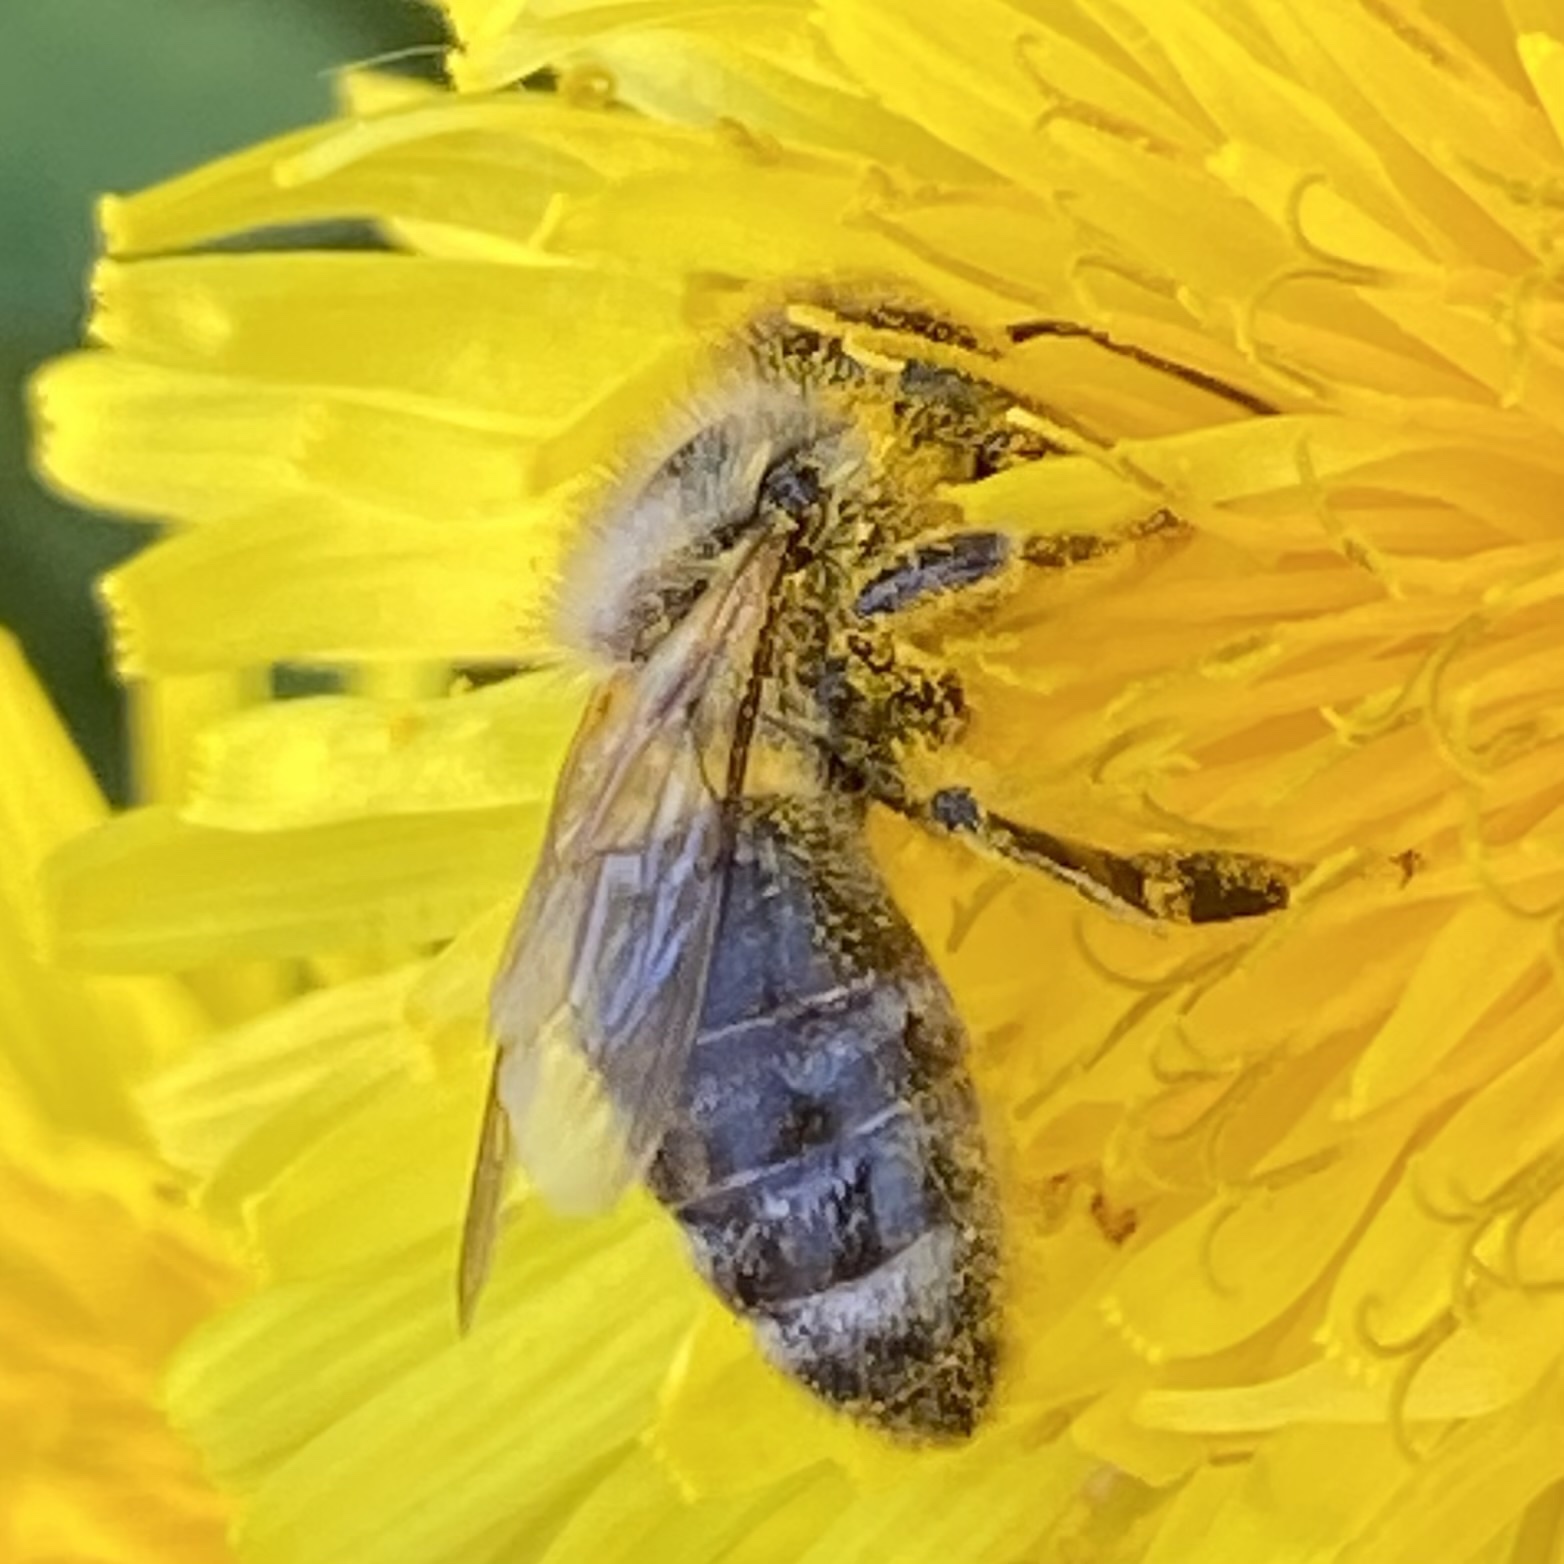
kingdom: Animalia
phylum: Arthropoda
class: Insecta
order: Hymenoptera
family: Apidae
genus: Apis
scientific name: Apis mellifera
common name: Honey bee
